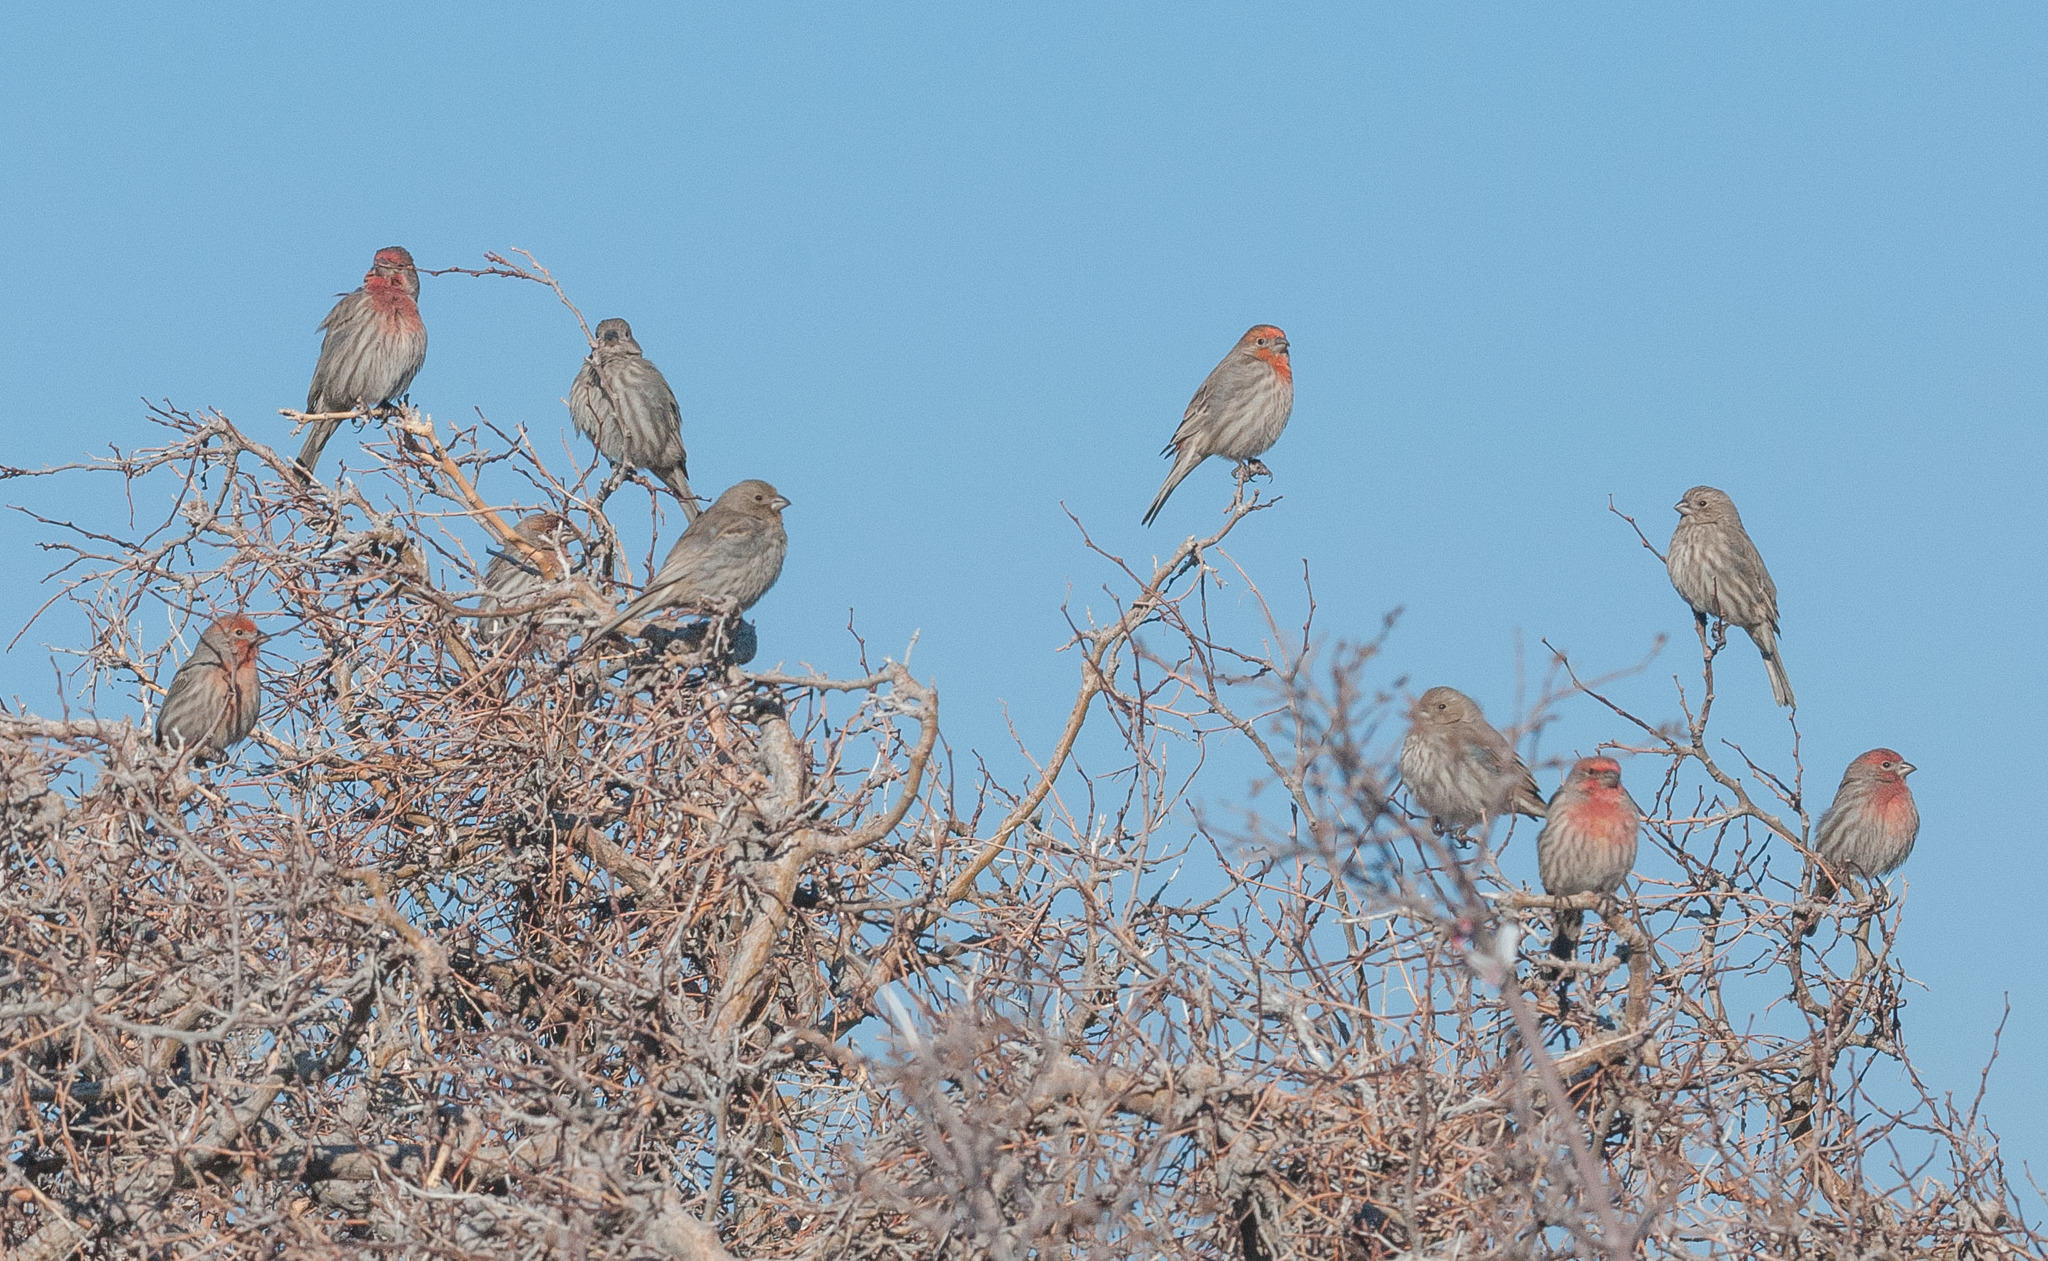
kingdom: Animalia
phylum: Chordata
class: Aves
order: Passeriformes
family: Fringillidae
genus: Haemorhous
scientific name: Haemorhous mexicanus
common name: House finch
